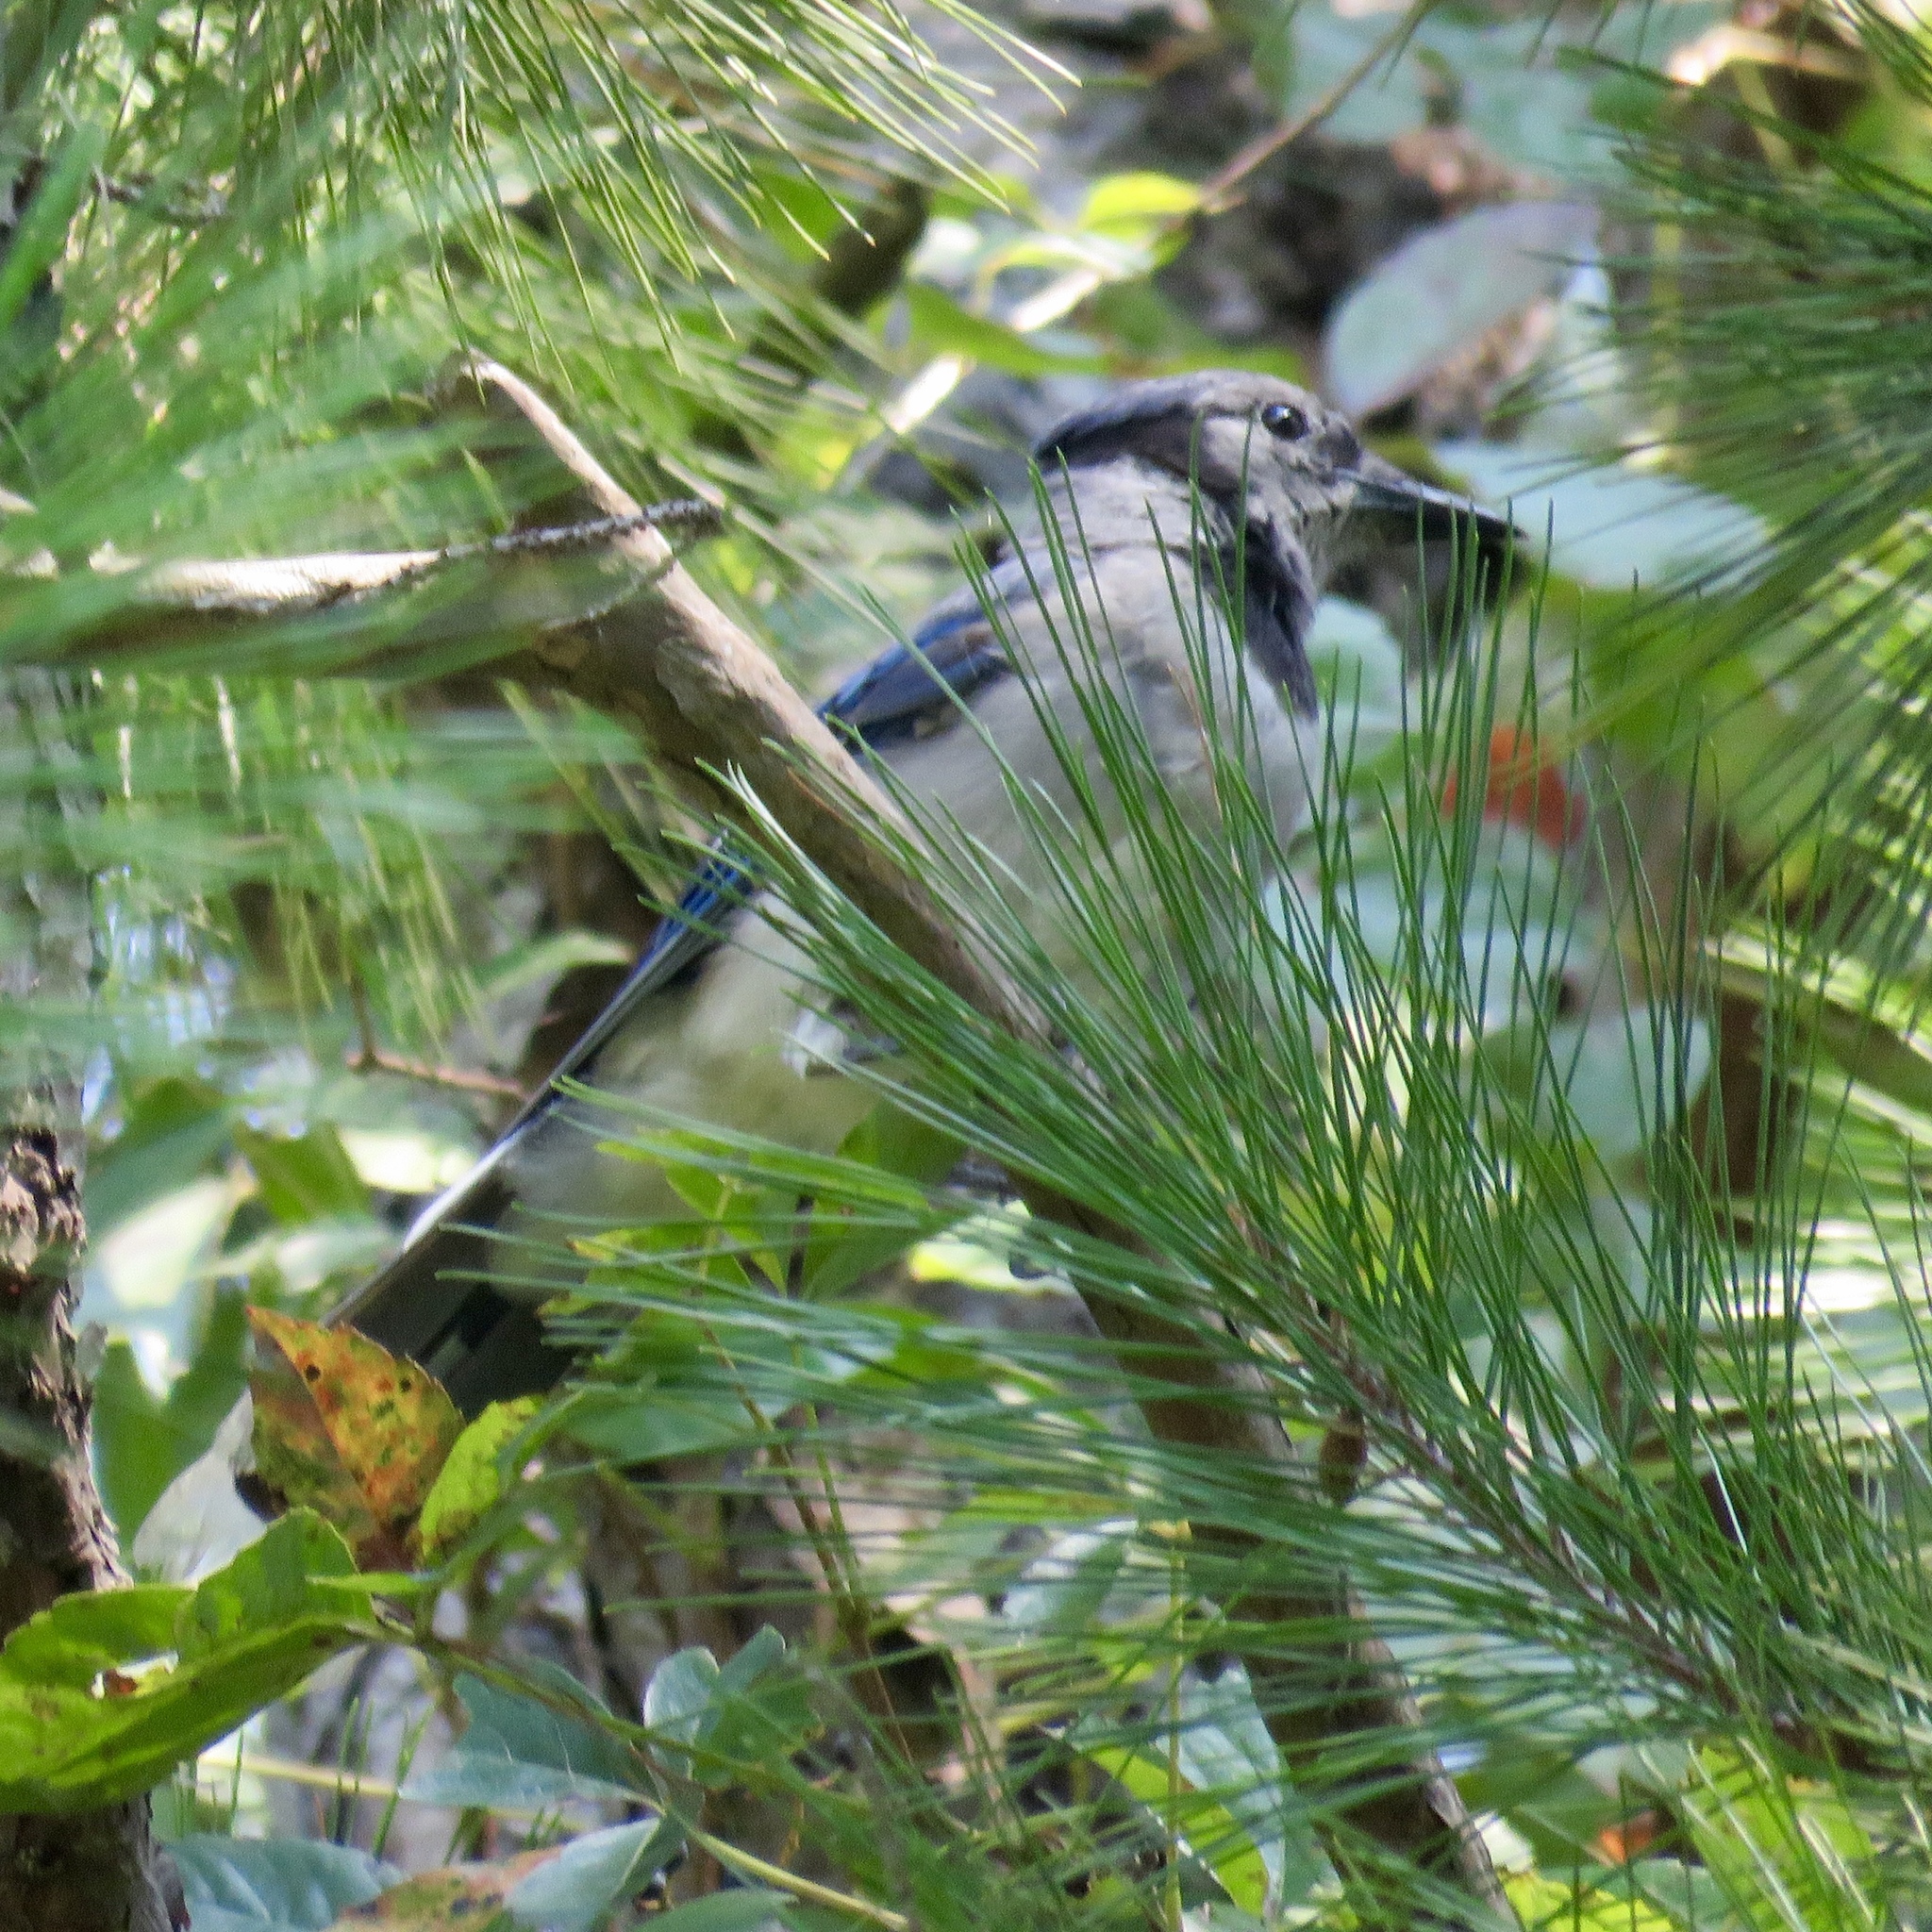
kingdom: Animalia
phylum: Chordata
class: Aves
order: Passeriformes
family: Corvidae
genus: Cyanocitta
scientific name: Cyanocitta cristata
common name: Blue jay
